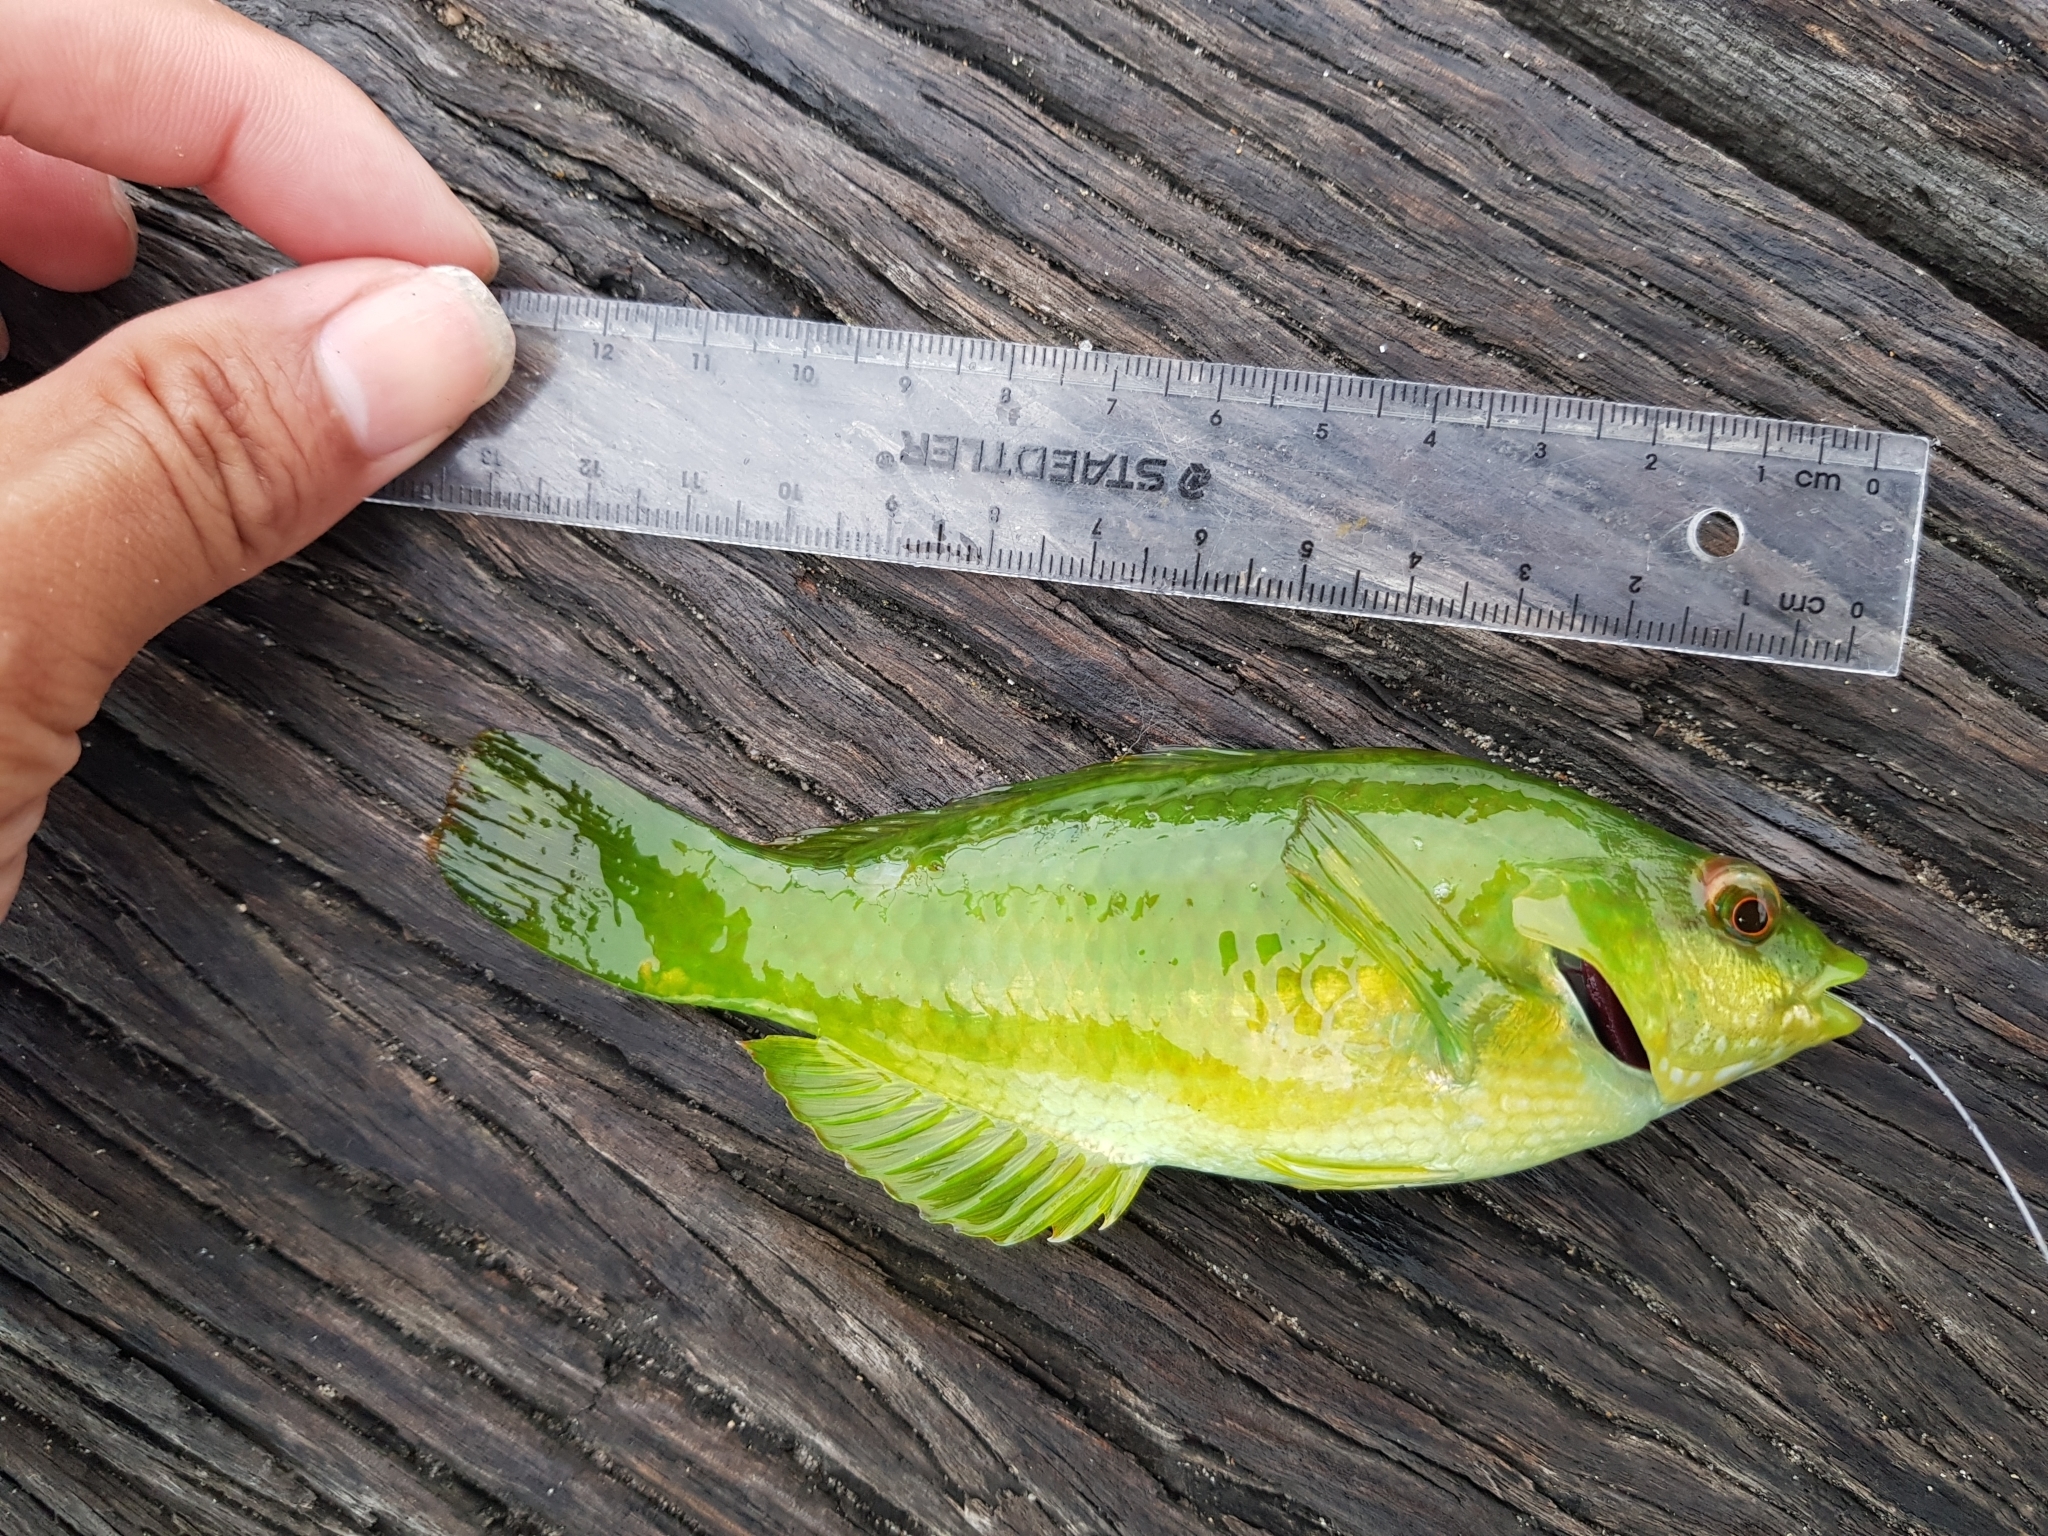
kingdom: Animalia
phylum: Chordata
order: Perciformes
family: Labridae
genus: Notolabrus
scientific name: Notolabrus tetricus
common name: Blue-throated parrotfish
